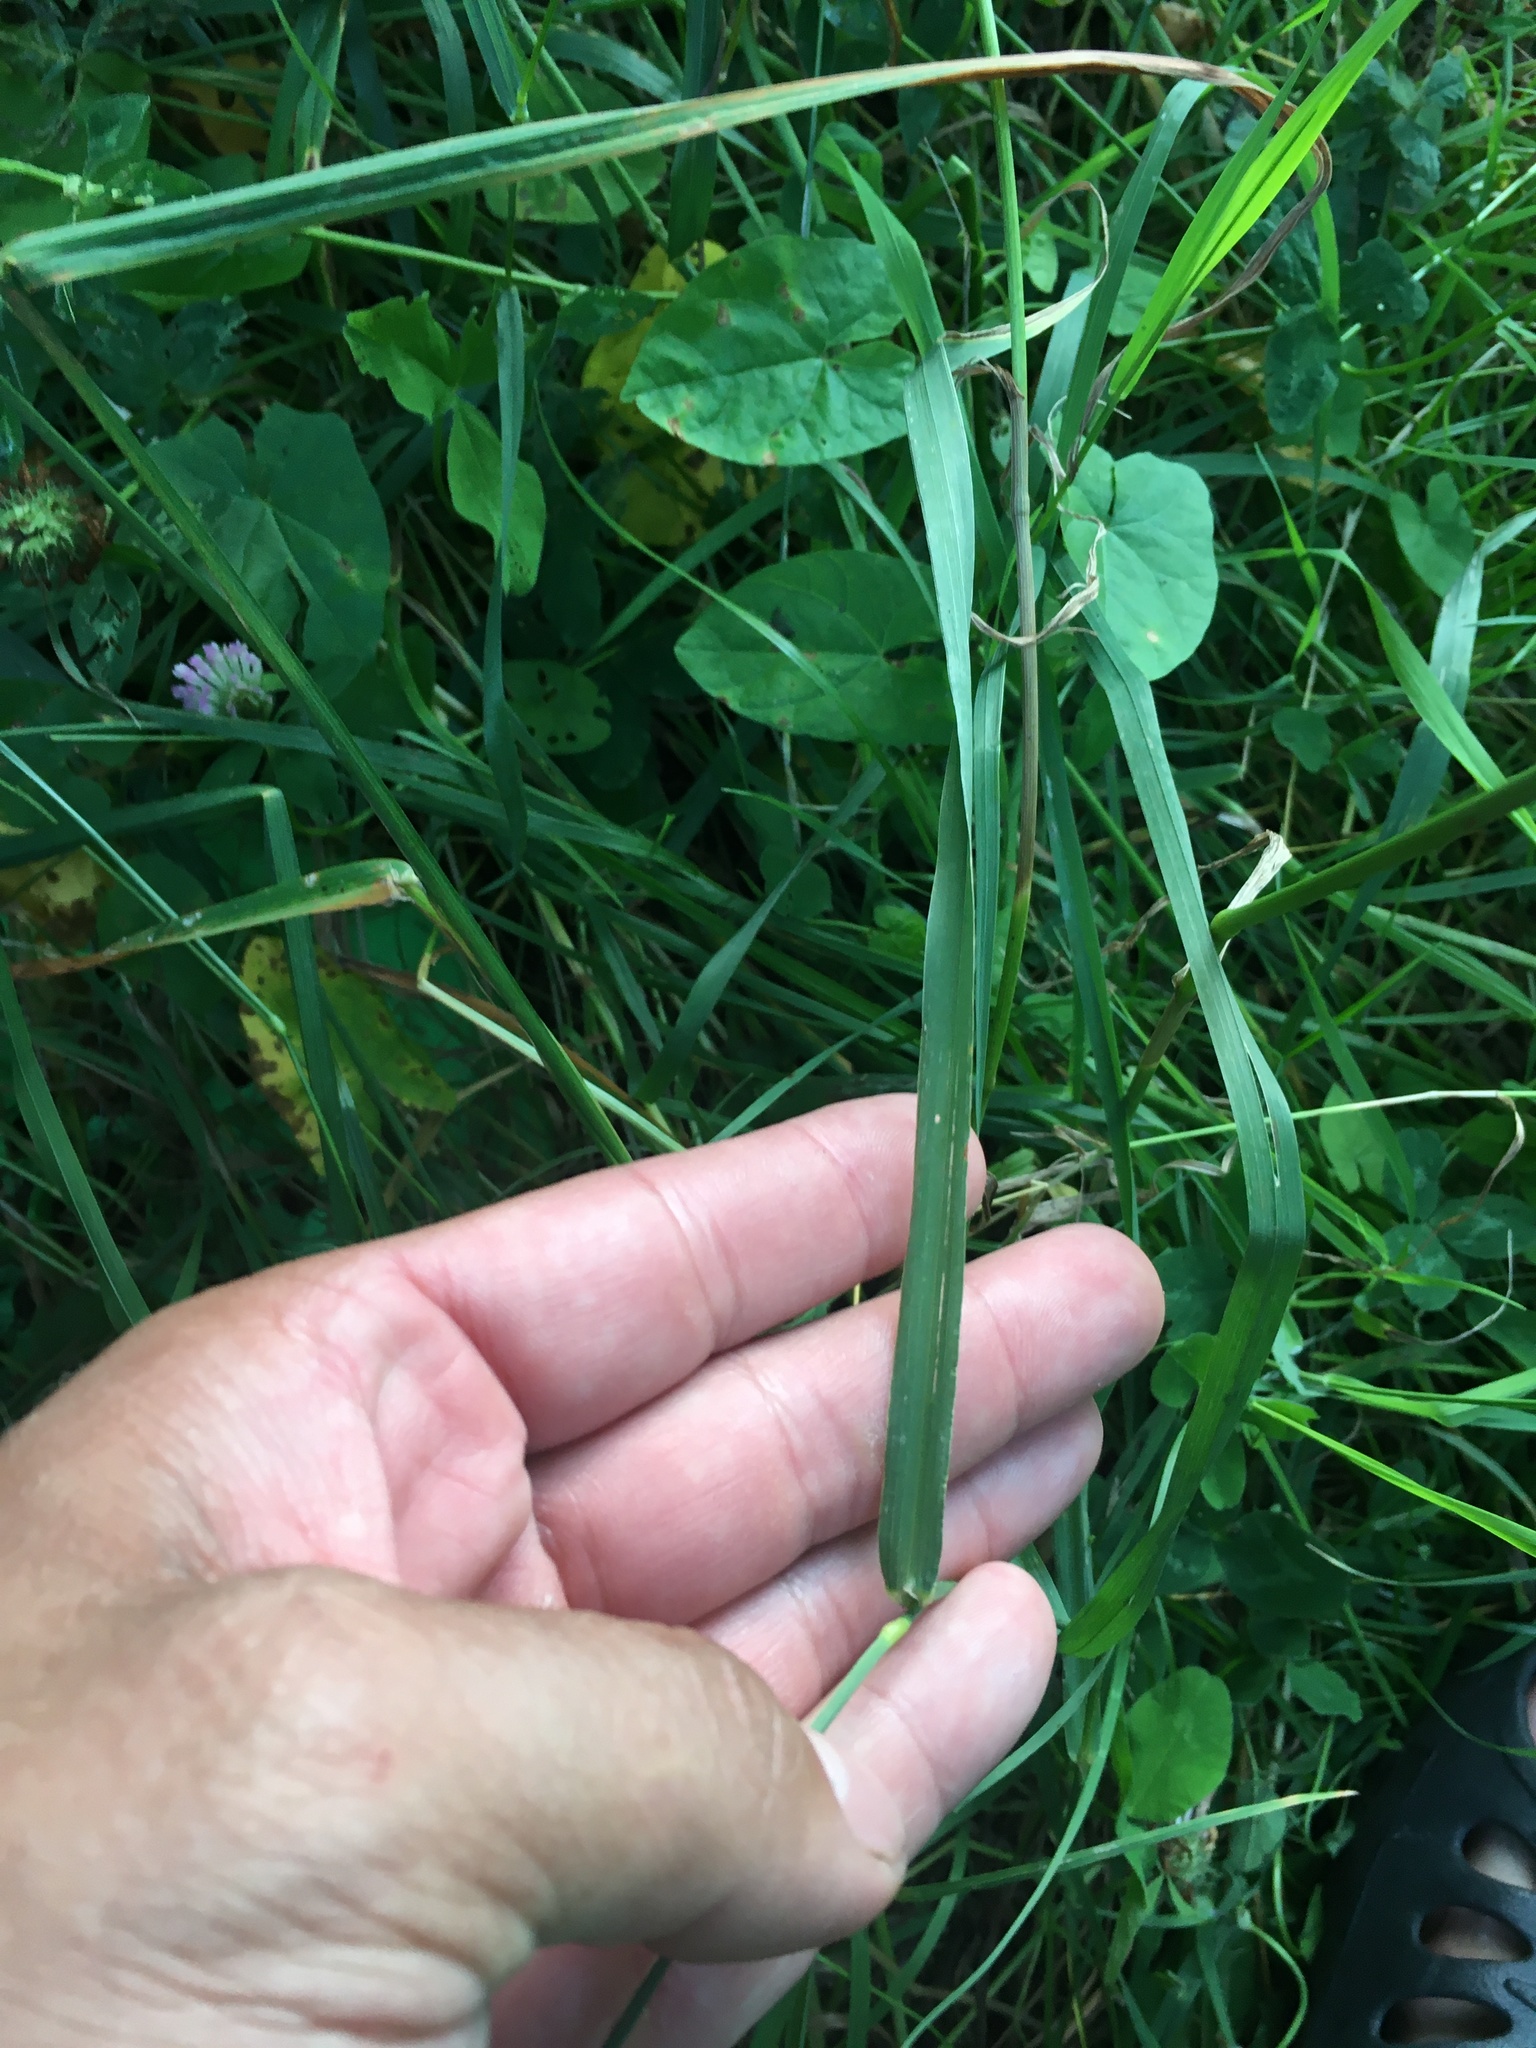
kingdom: Plantae
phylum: Tracheophyta
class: Liliopsida
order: Poales
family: Poaceae
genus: Phleum
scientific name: Phleum pratense
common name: Timothy grass
